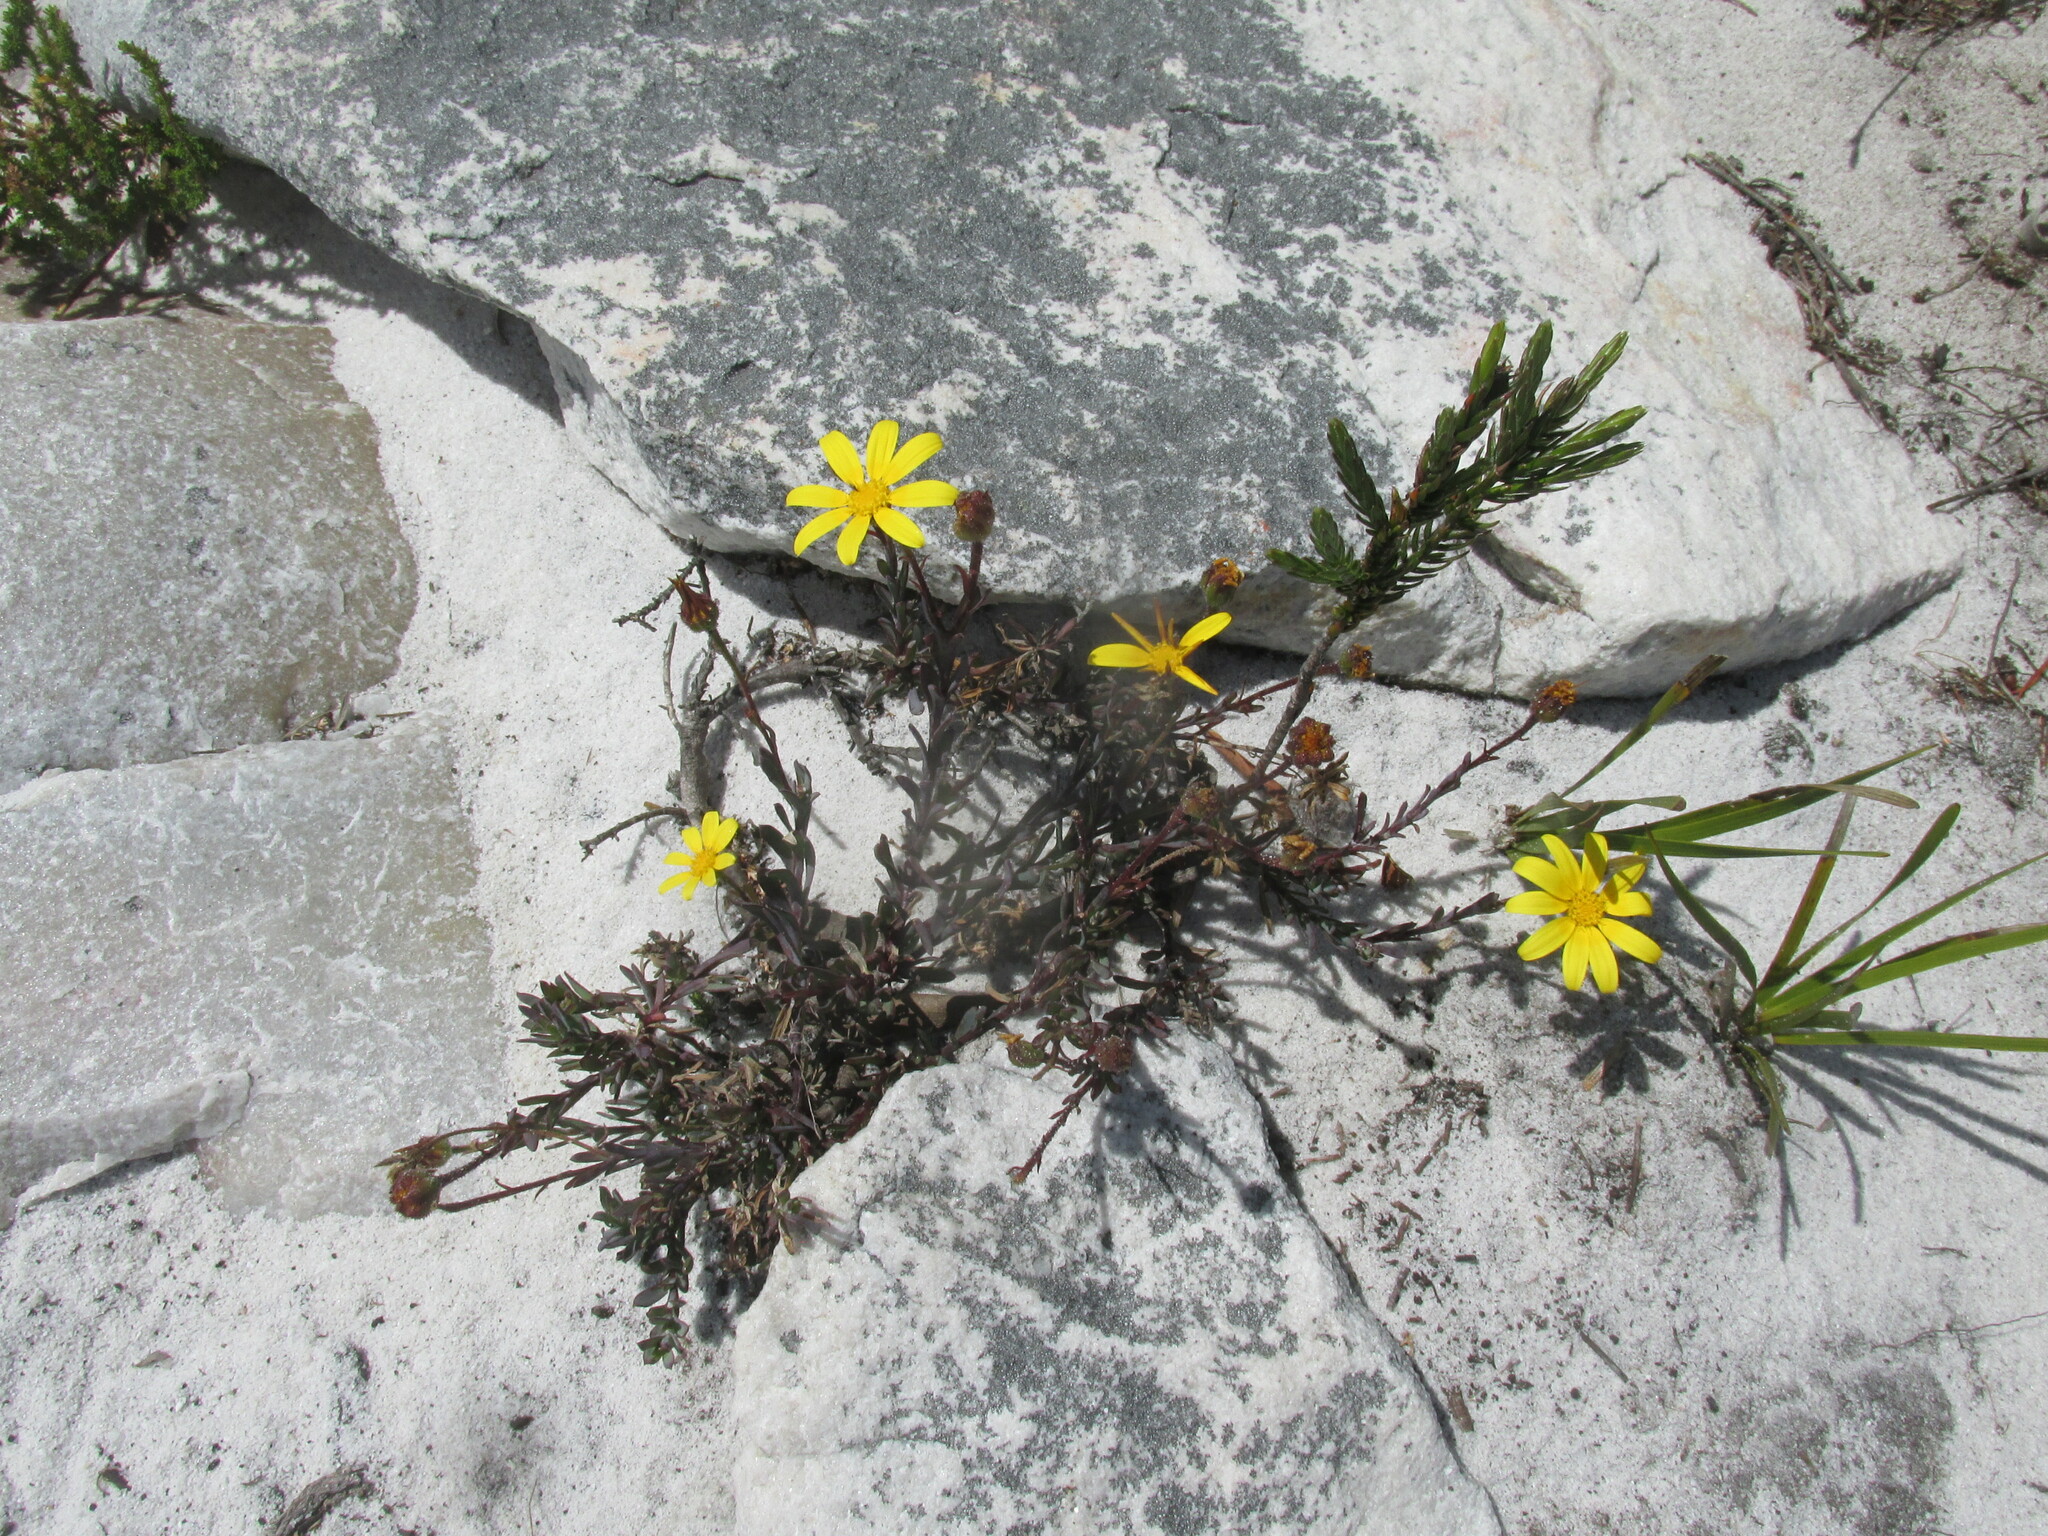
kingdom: Plantae
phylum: Tracheophyta
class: Magnoliopsida
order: Asterales
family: Asteraceae
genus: Osteospermum
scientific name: Osteospermum polygaloides
